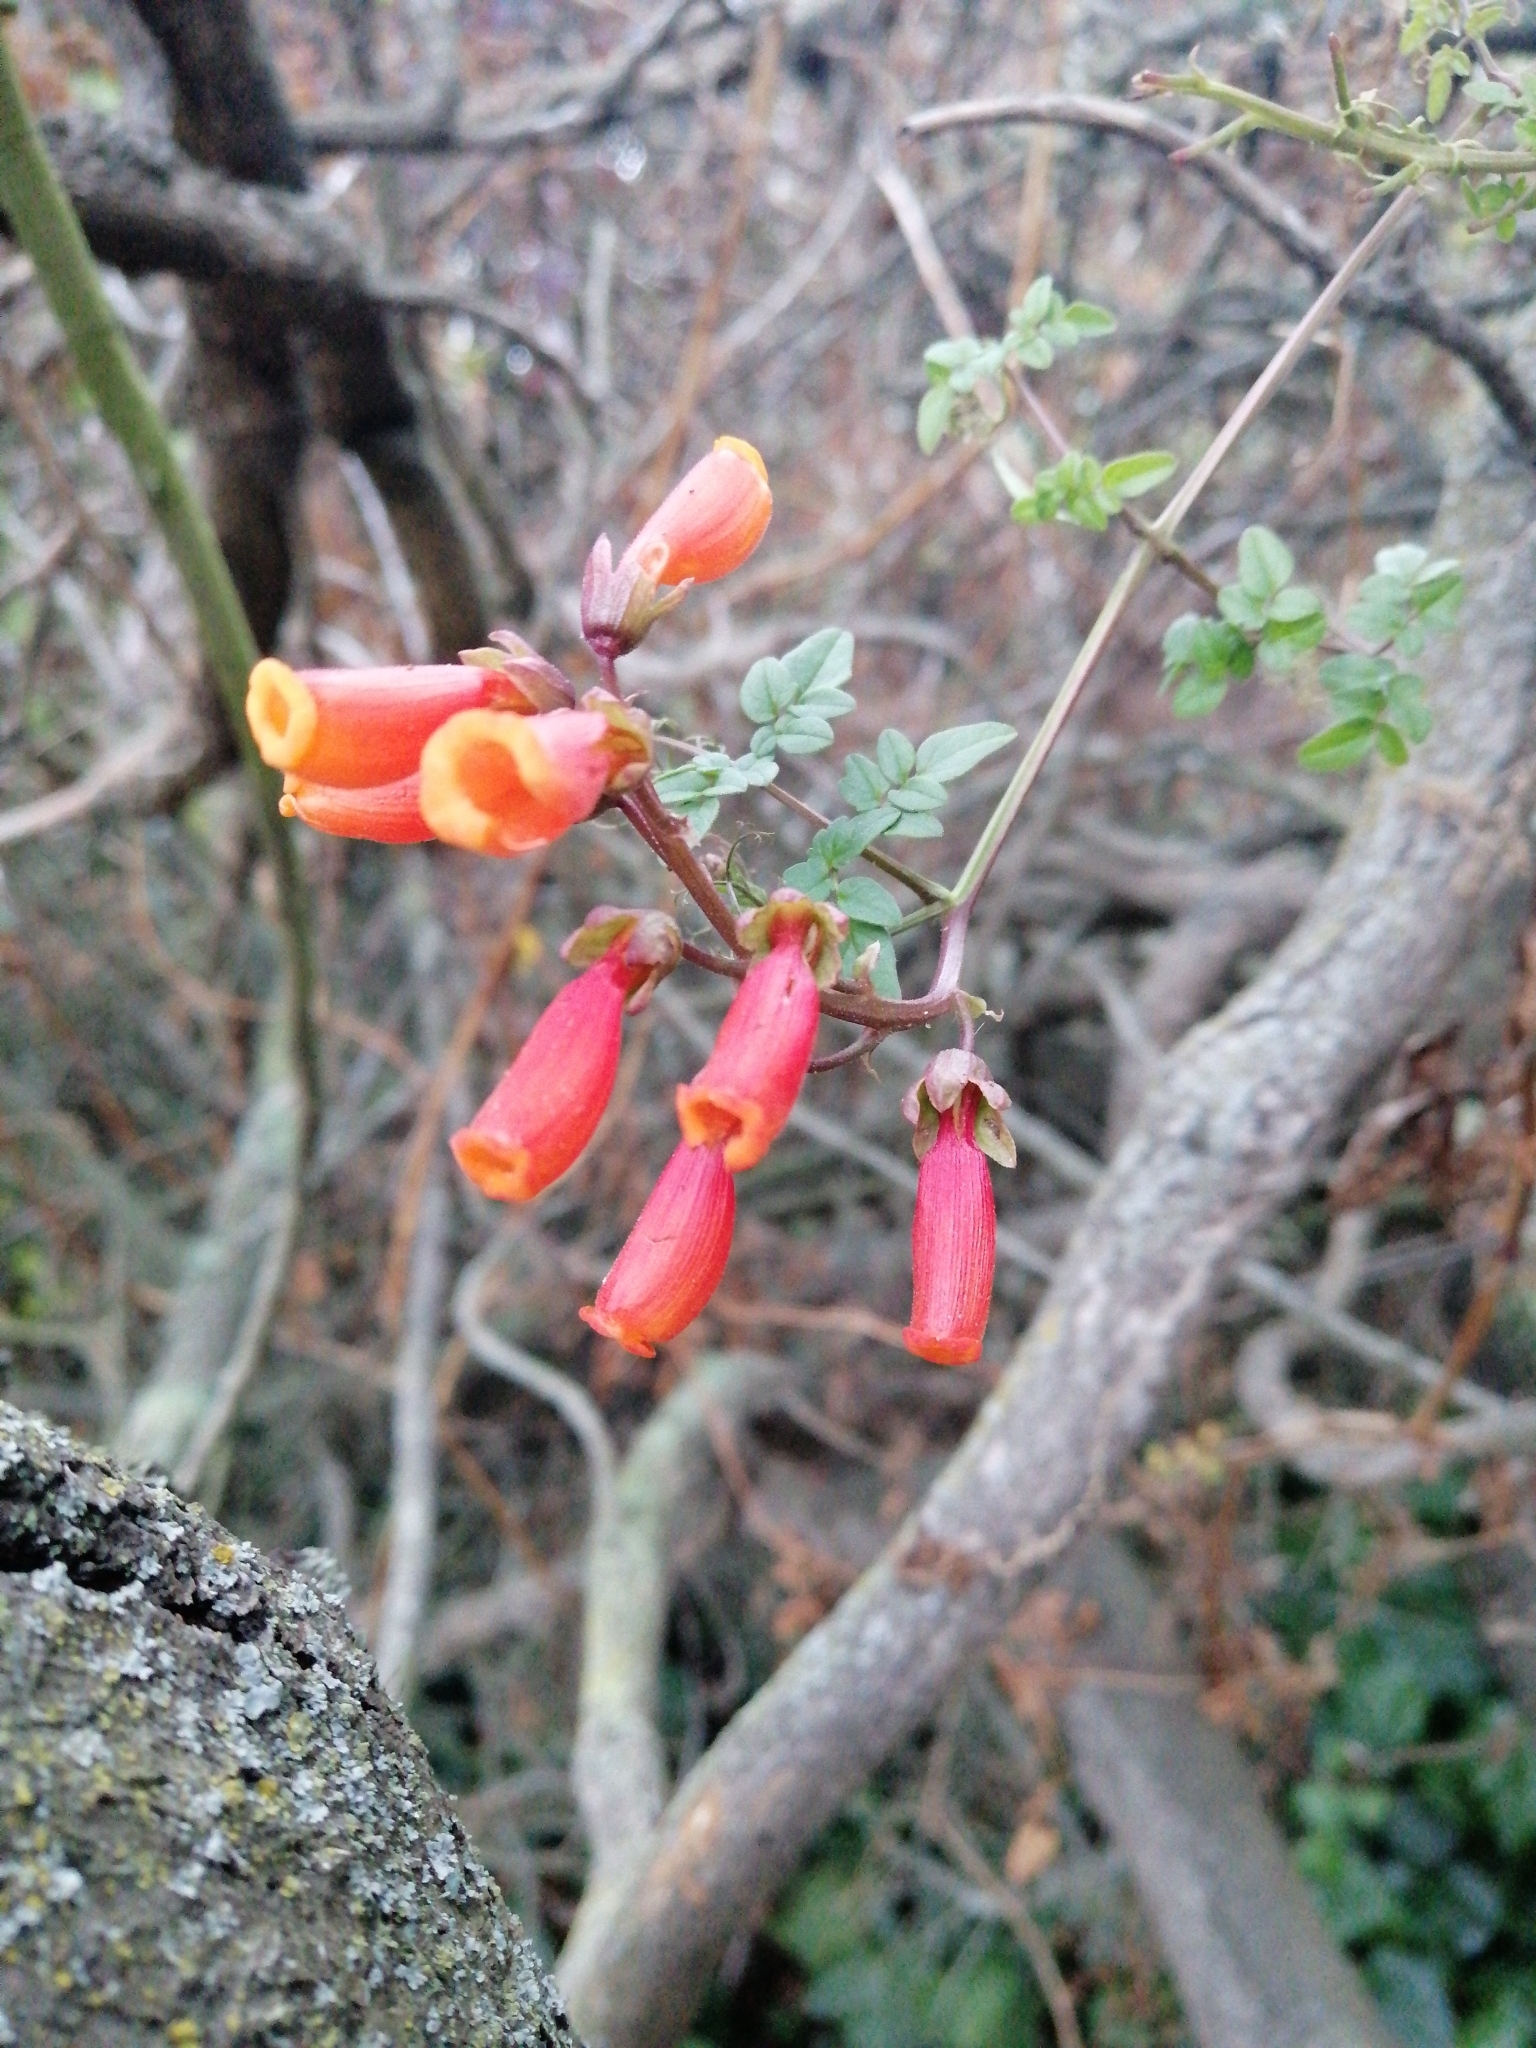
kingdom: Plantae
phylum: Tracheophyta
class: Magnoliopsida
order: Lamiales
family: Bignoniaceae
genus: Eccremocarpus
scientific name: Eccremocarpus scaber
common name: Chilean glory-flower
